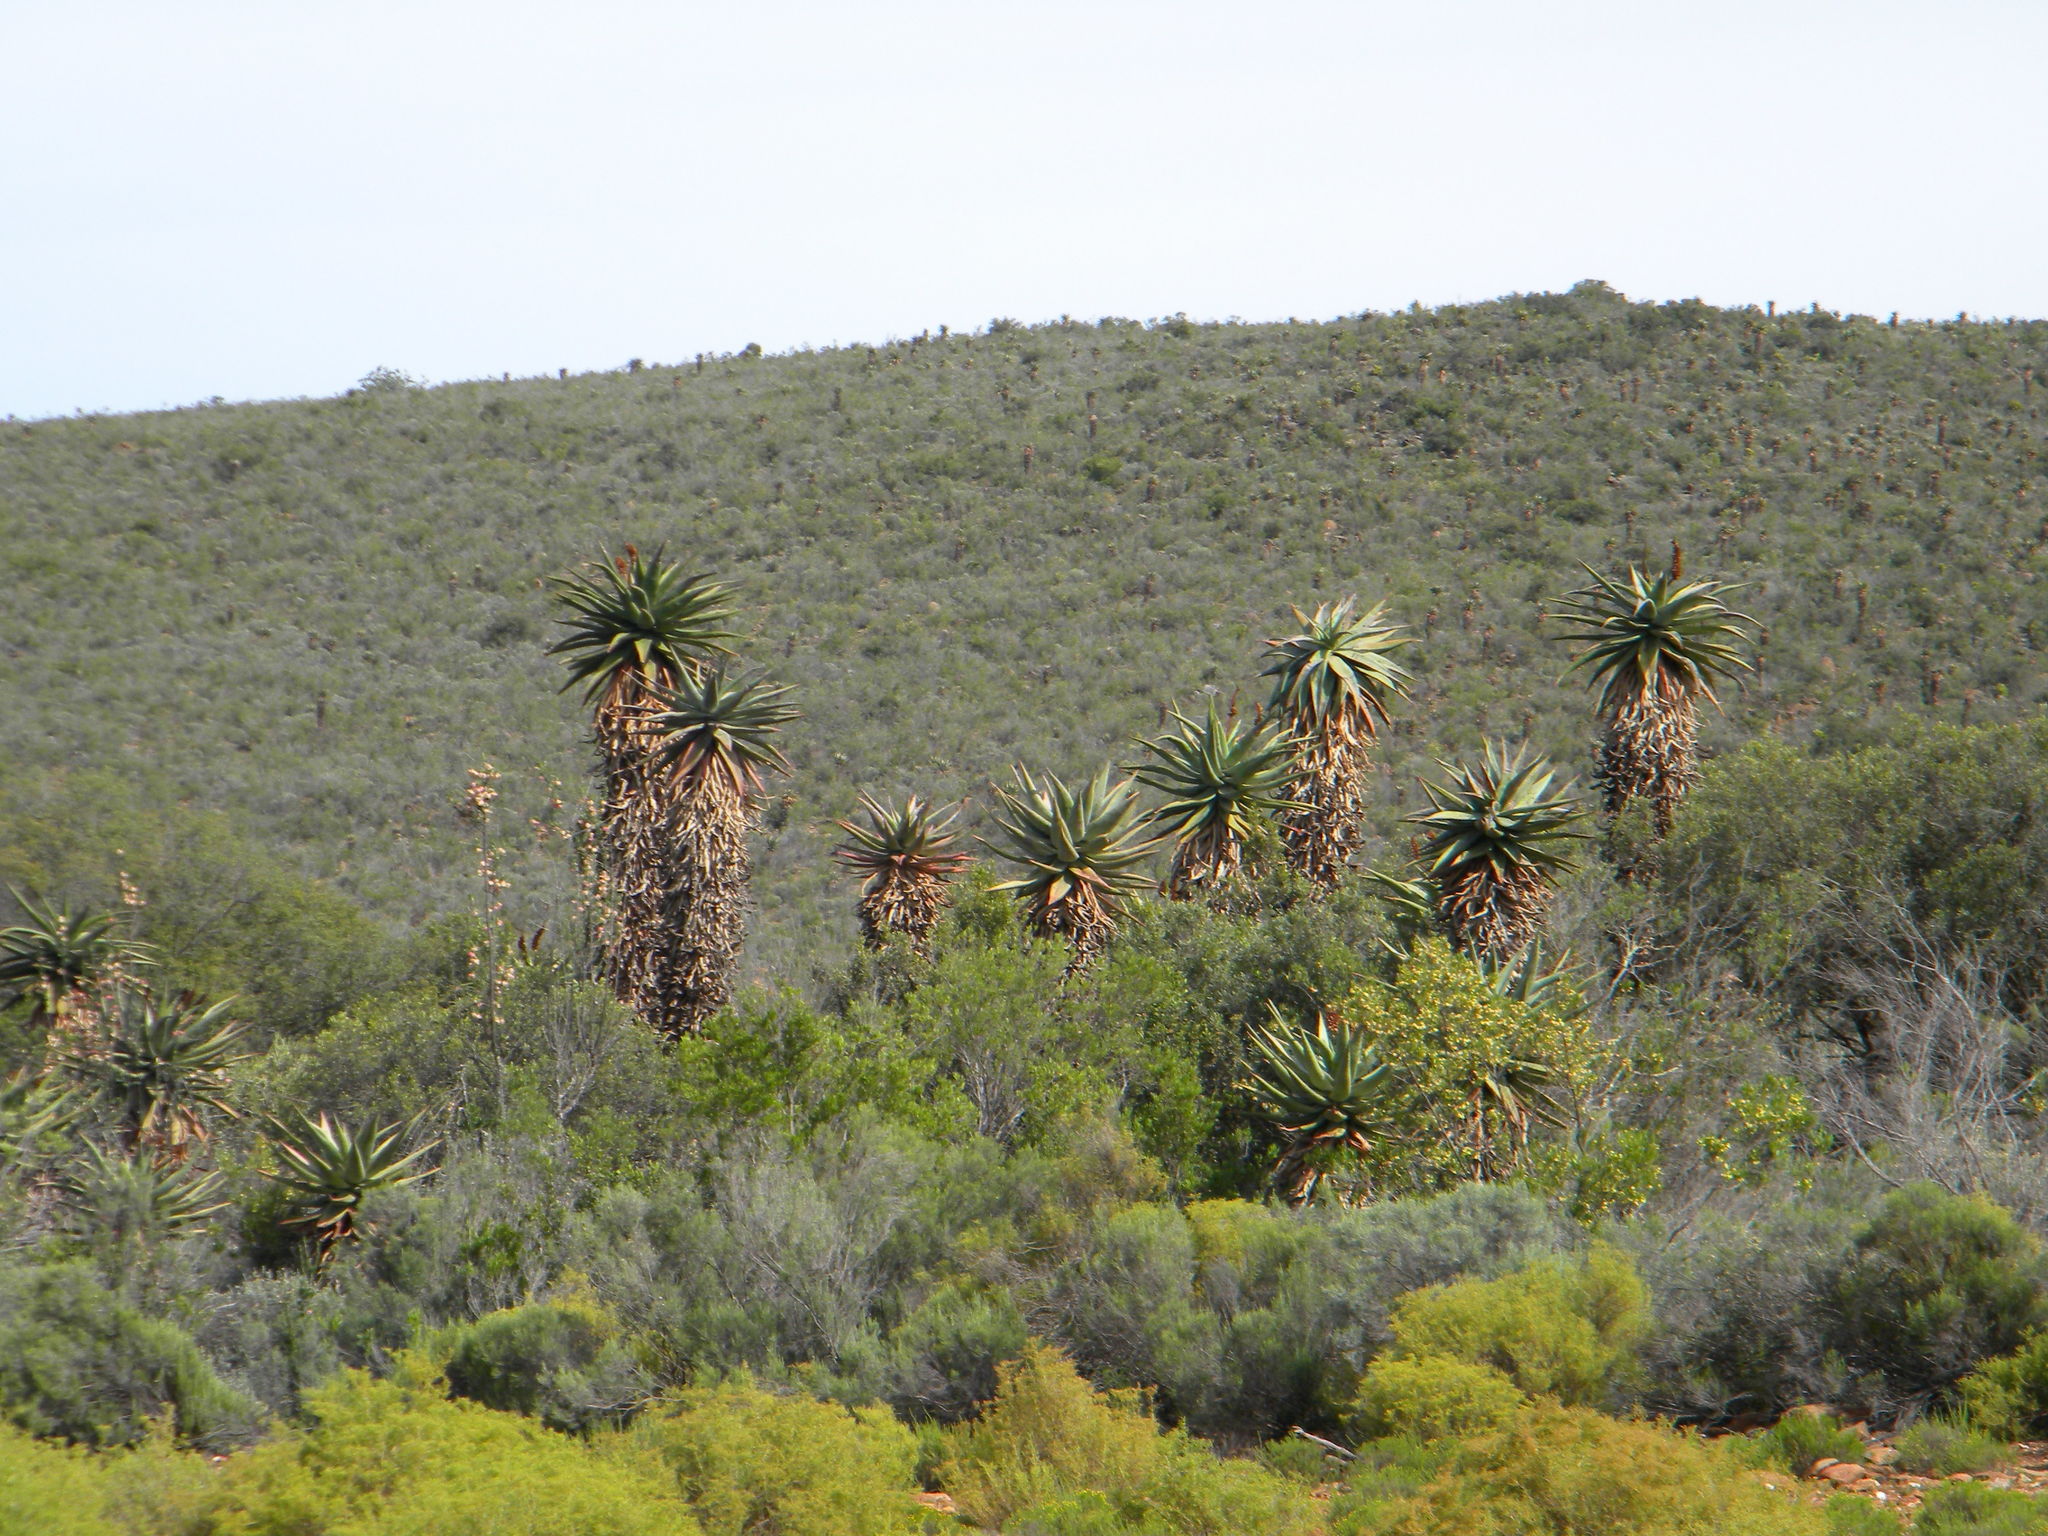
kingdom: Plantae
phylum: Tracheophyta
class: Liliopsida
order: Asparagales
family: Asphodelaceae
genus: Aloe
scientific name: Aloe ferox
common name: Bitter aloe
